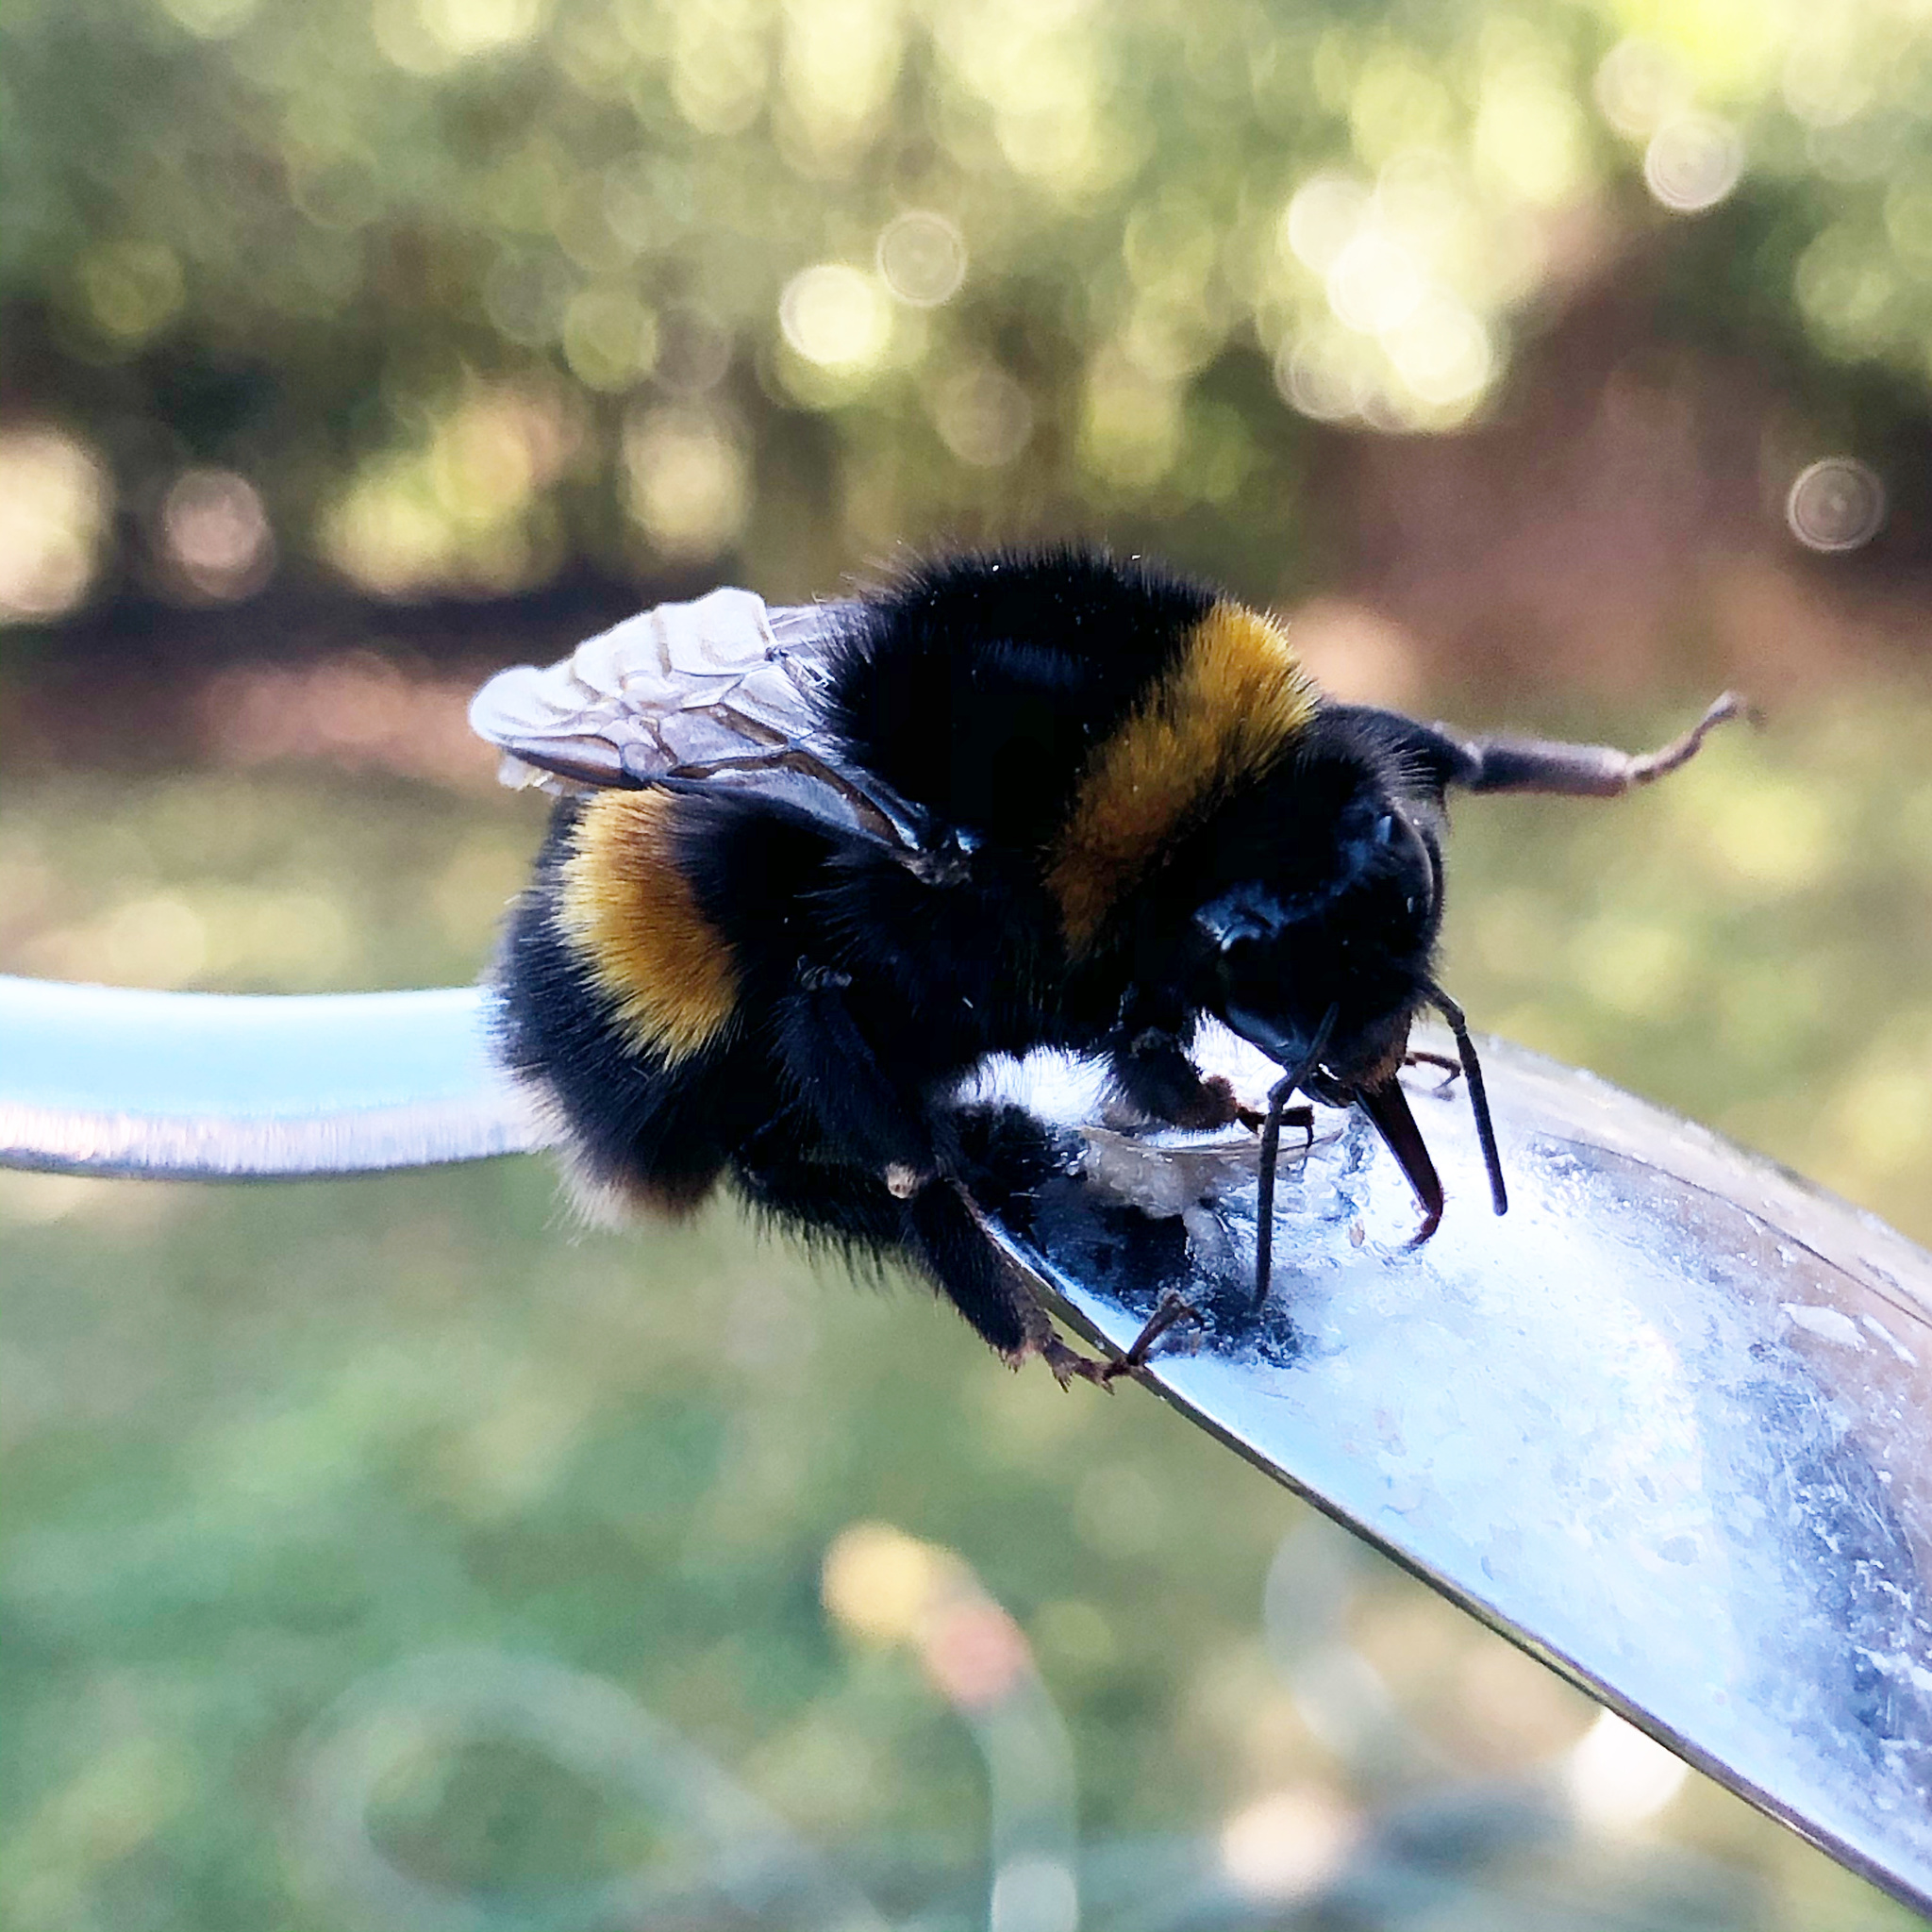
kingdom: Animalia
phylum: Arthropoda
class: Insecta
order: Hymenoptera
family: Apidae
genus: Bombus
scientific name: Bombus terrestris
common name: Buff-tailed bumblebee
